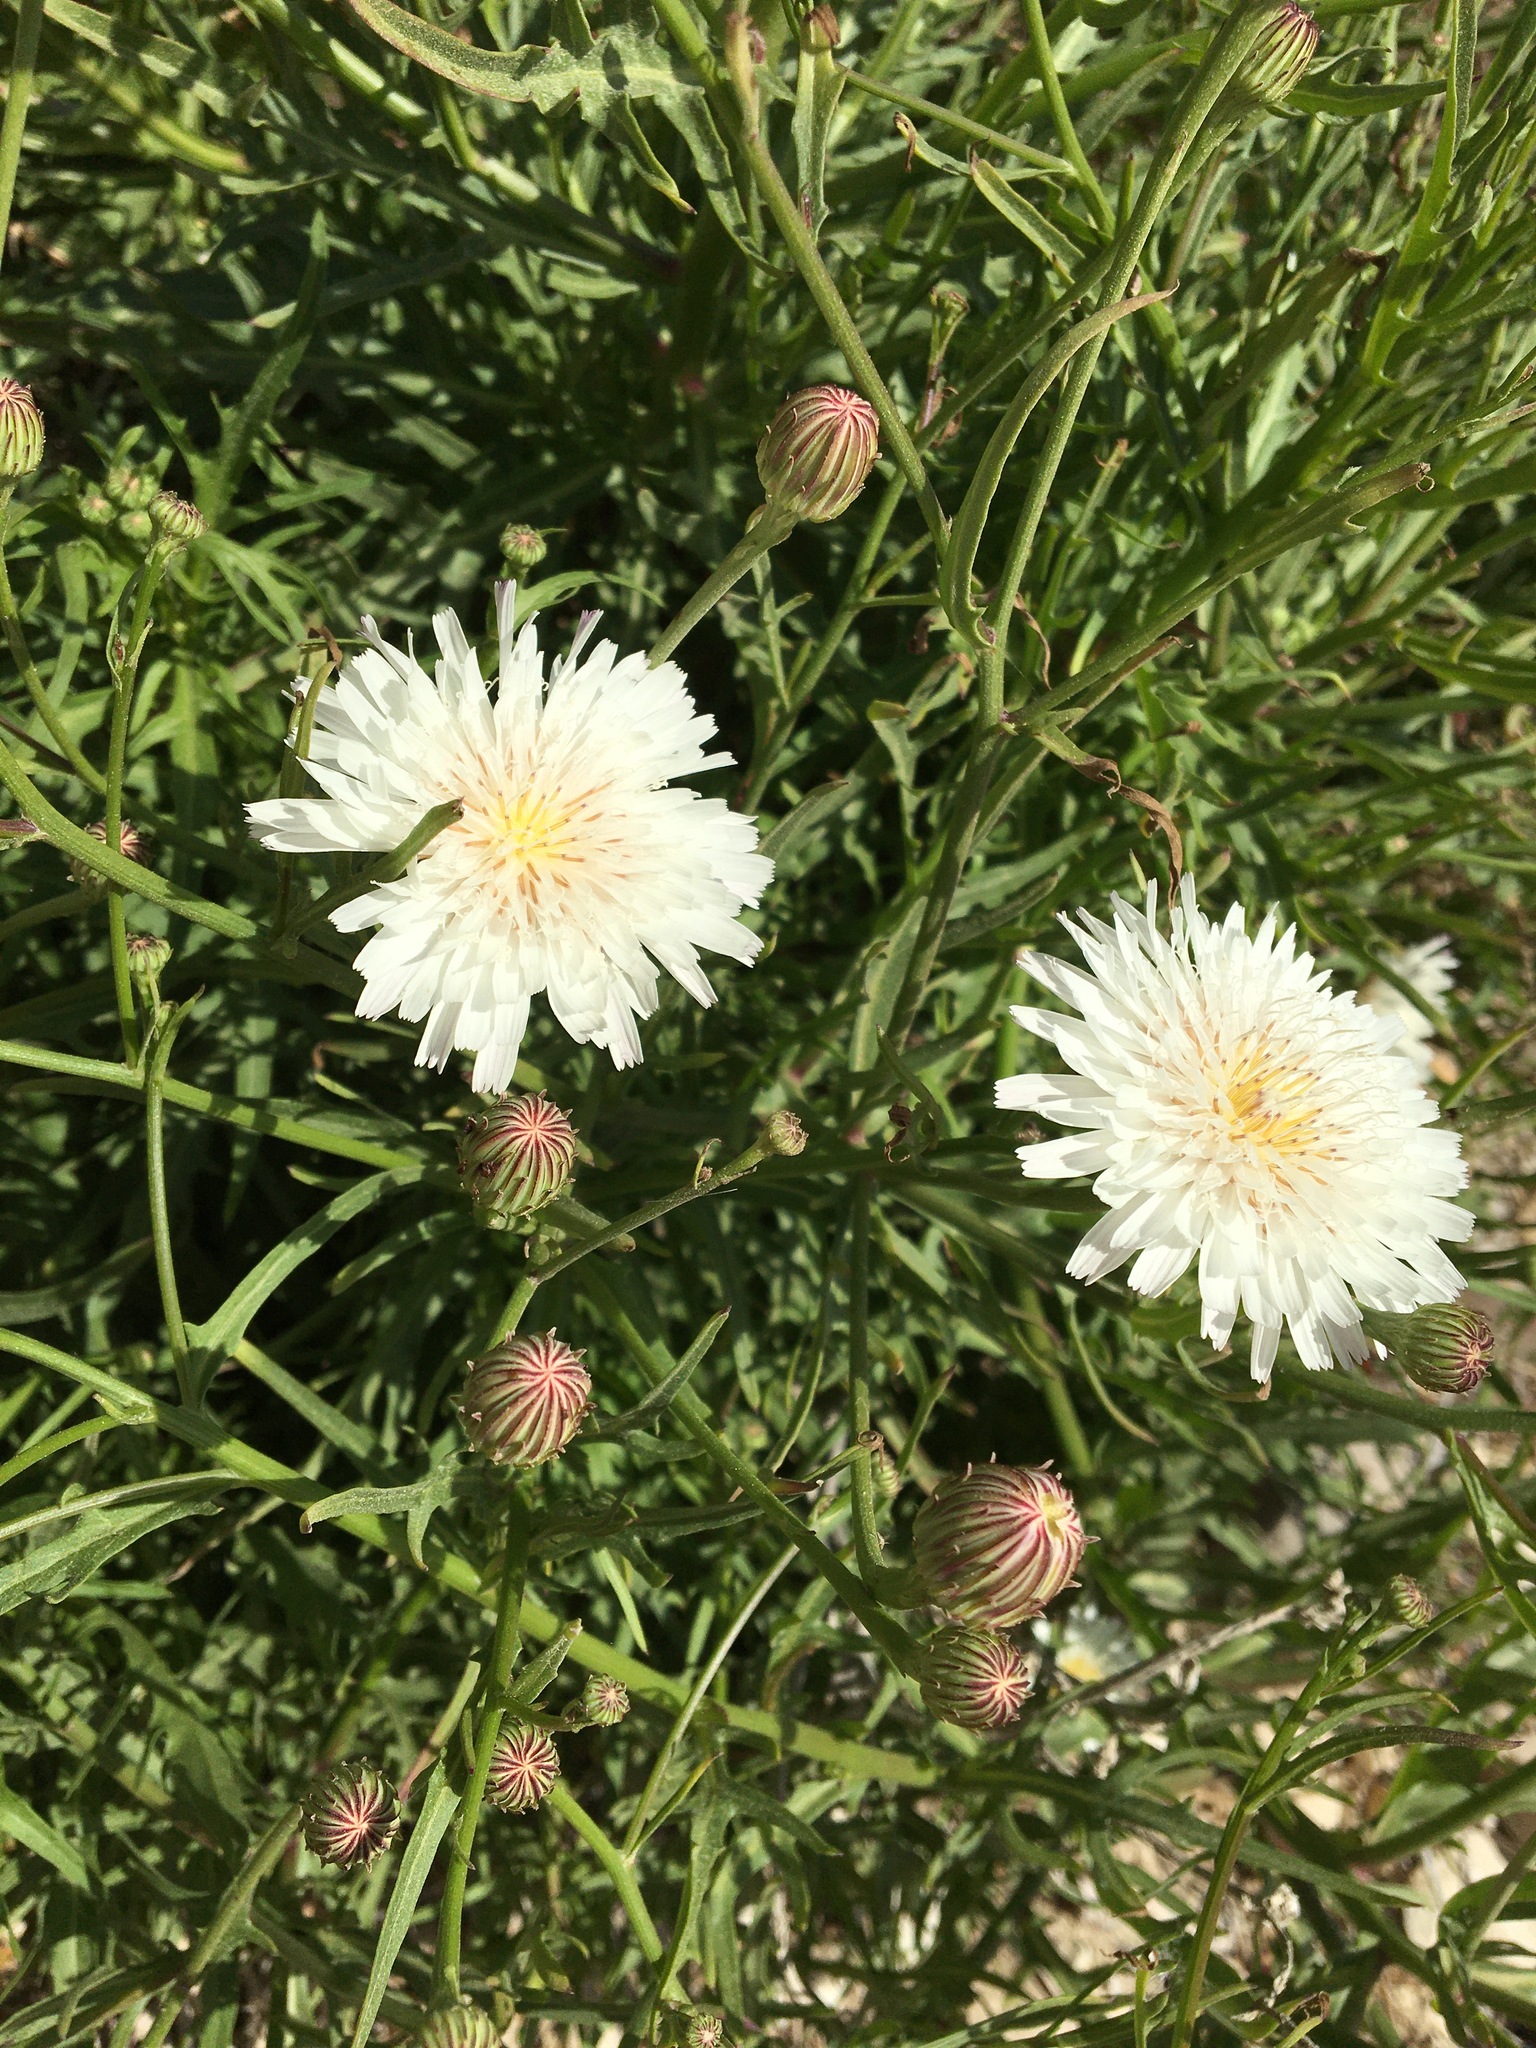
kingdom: Plantae
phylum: Tracheophyta
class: Magnoliopsida
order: Asterales
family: Asteraceae
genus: Malacothrix
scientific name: Malacothrix saxatilis
